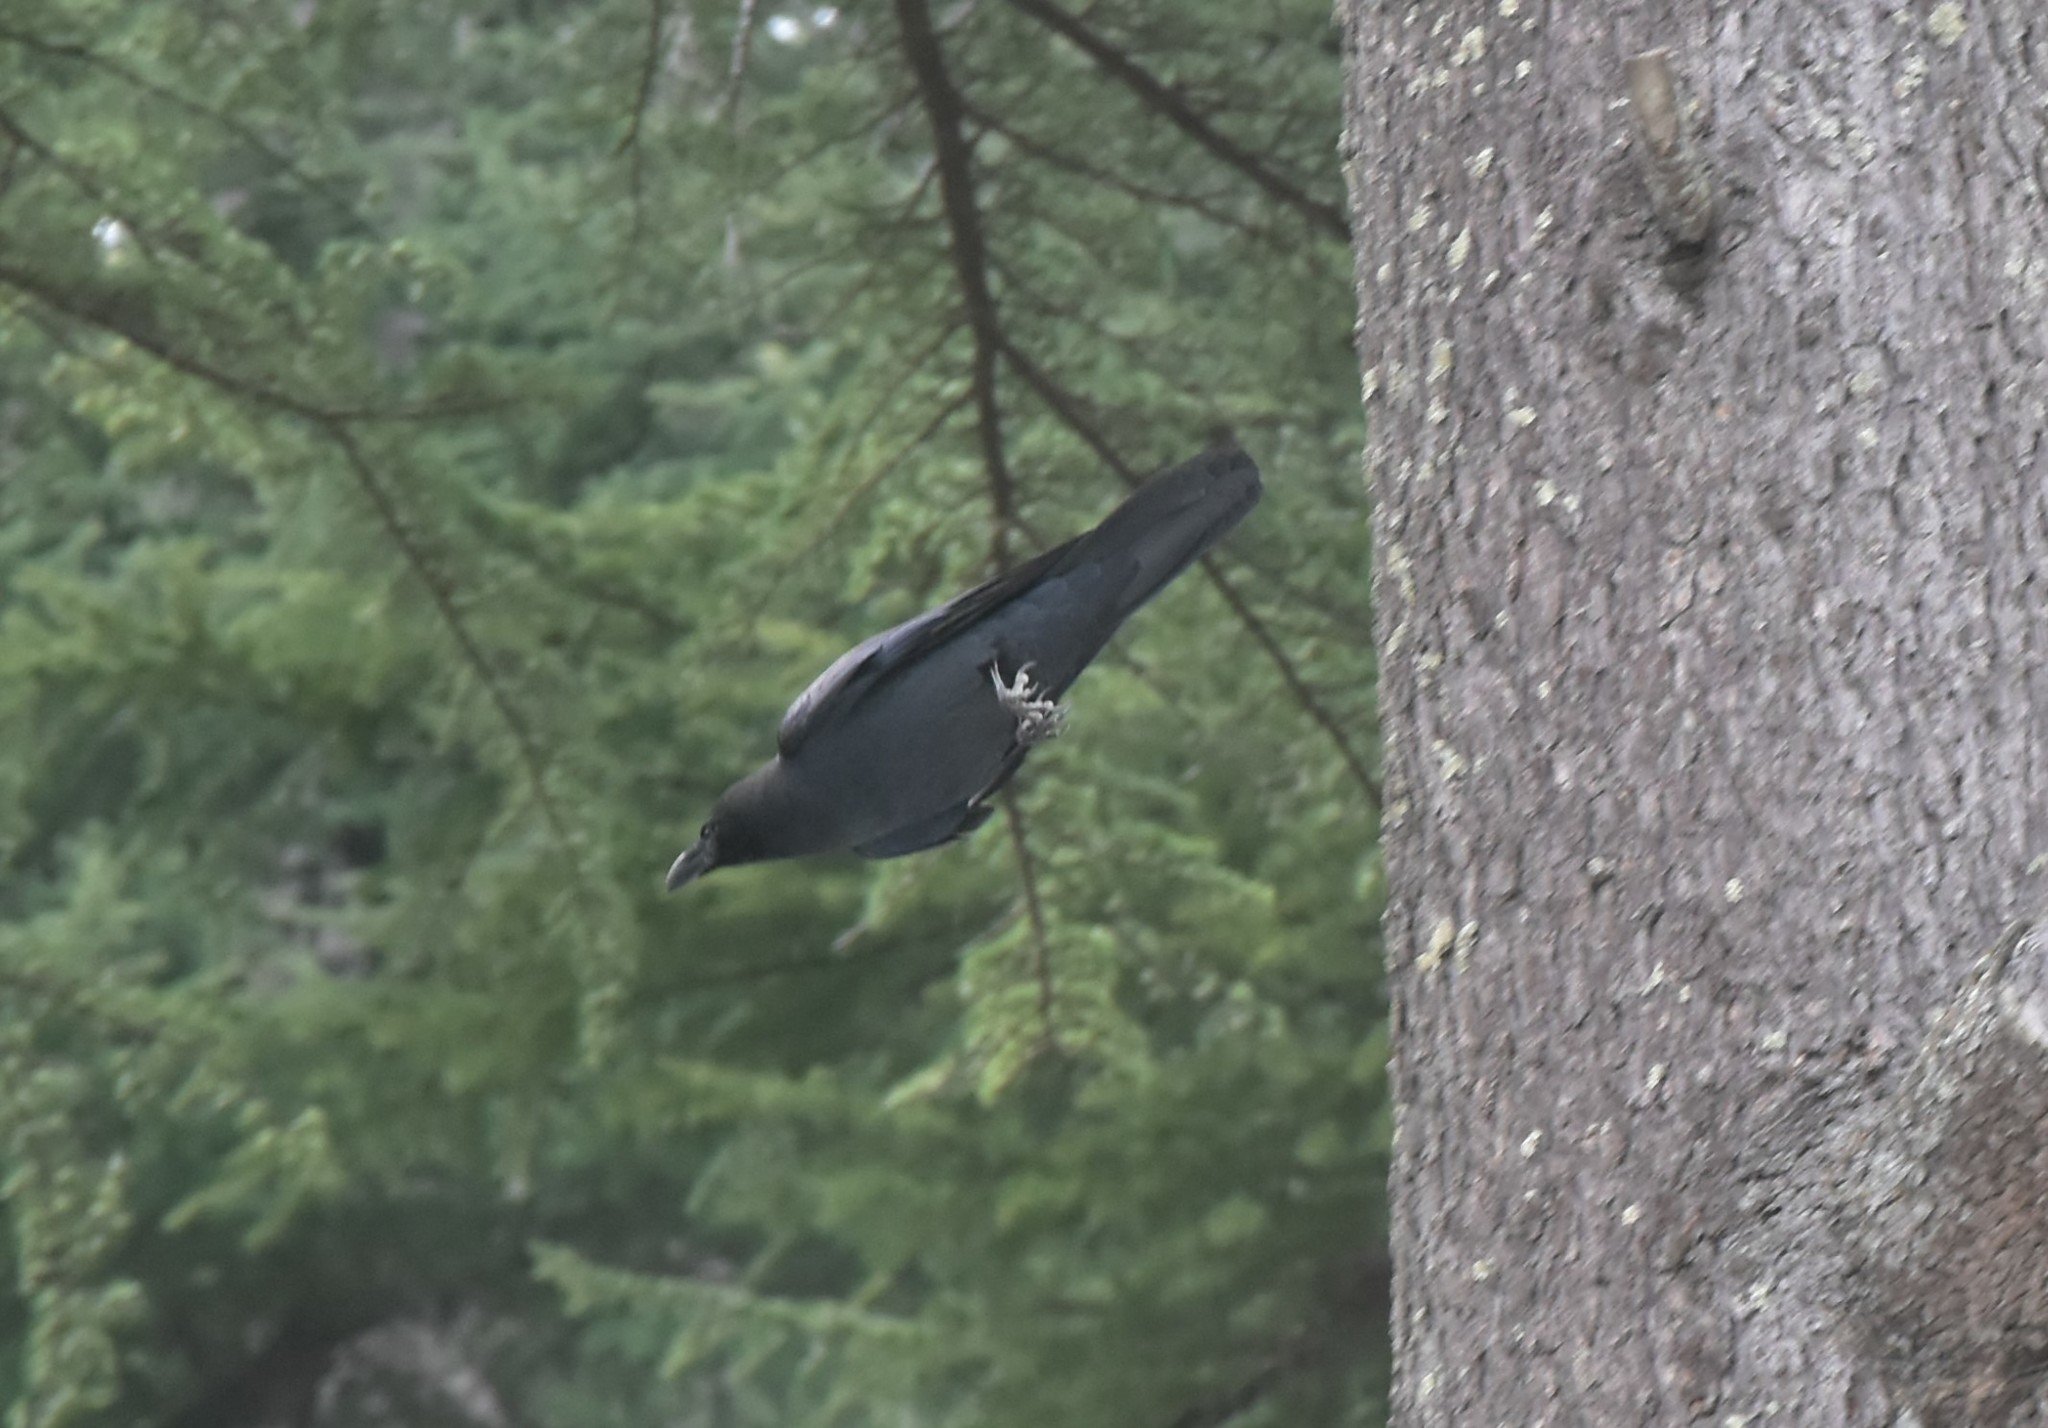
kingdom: Animalia
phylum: Chordata
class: Aves
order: Passeriformes
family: Corvidae
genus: Corvus
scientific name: Corvus macrorhynchos
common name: Large-billed crow
